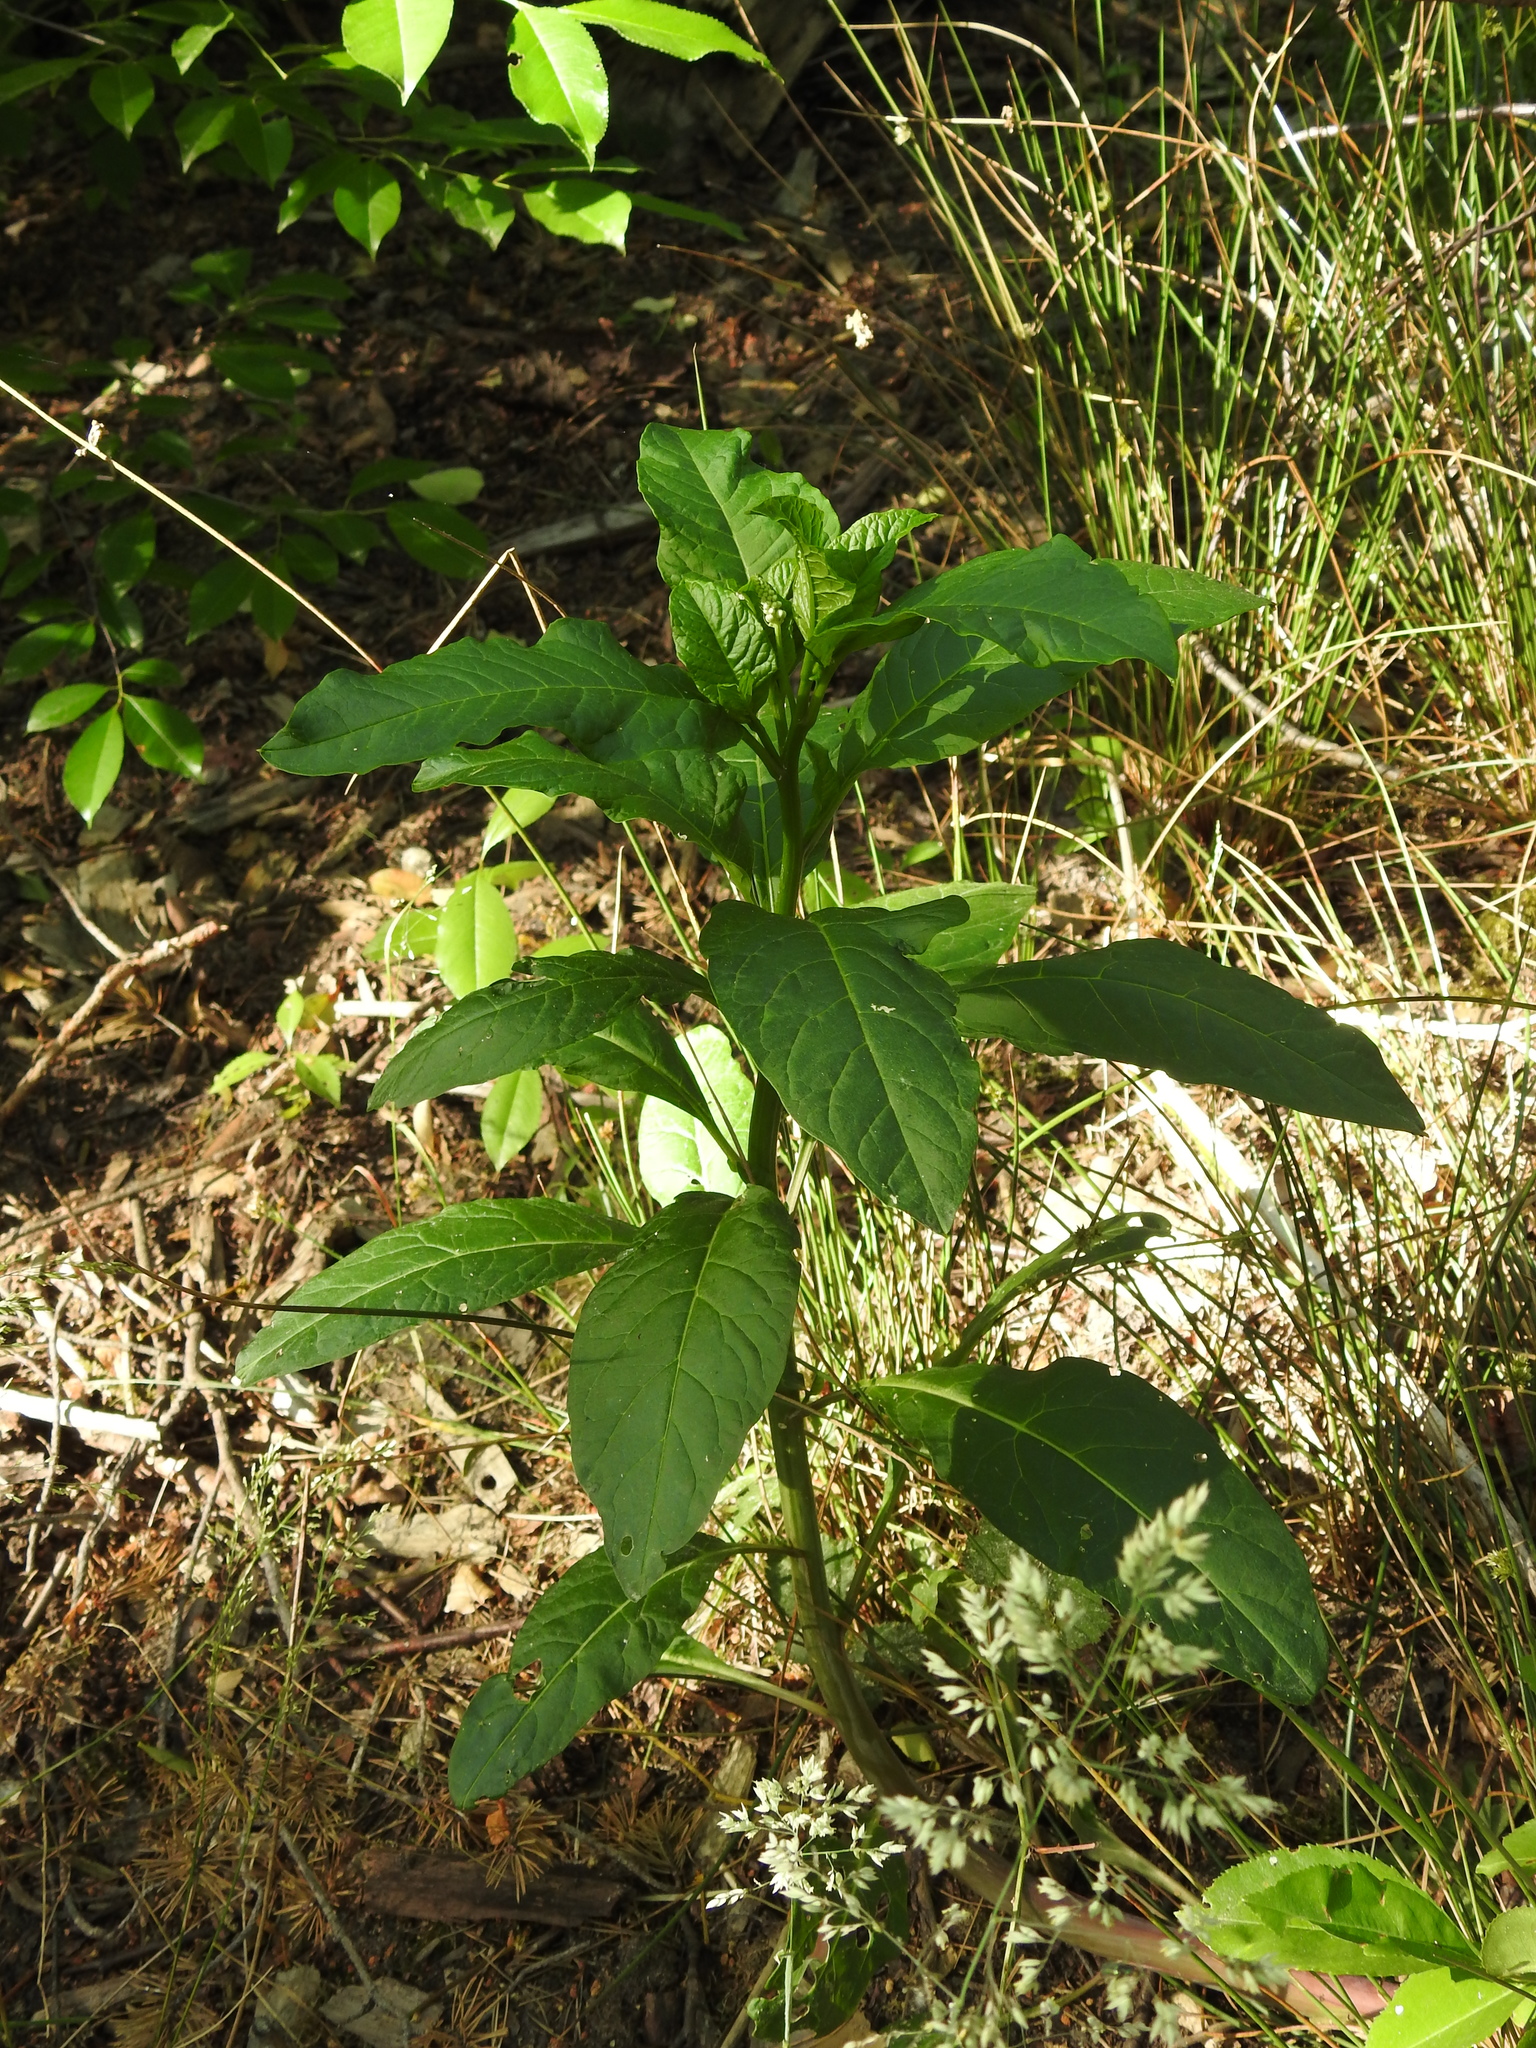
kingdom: Plantae
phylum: Tracheophyta
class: Magnoliopsida
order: Caryophyllales
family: Phytolaccaceae
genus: Phytolacca
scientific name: Phytolacca americana
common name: American pokeweed
